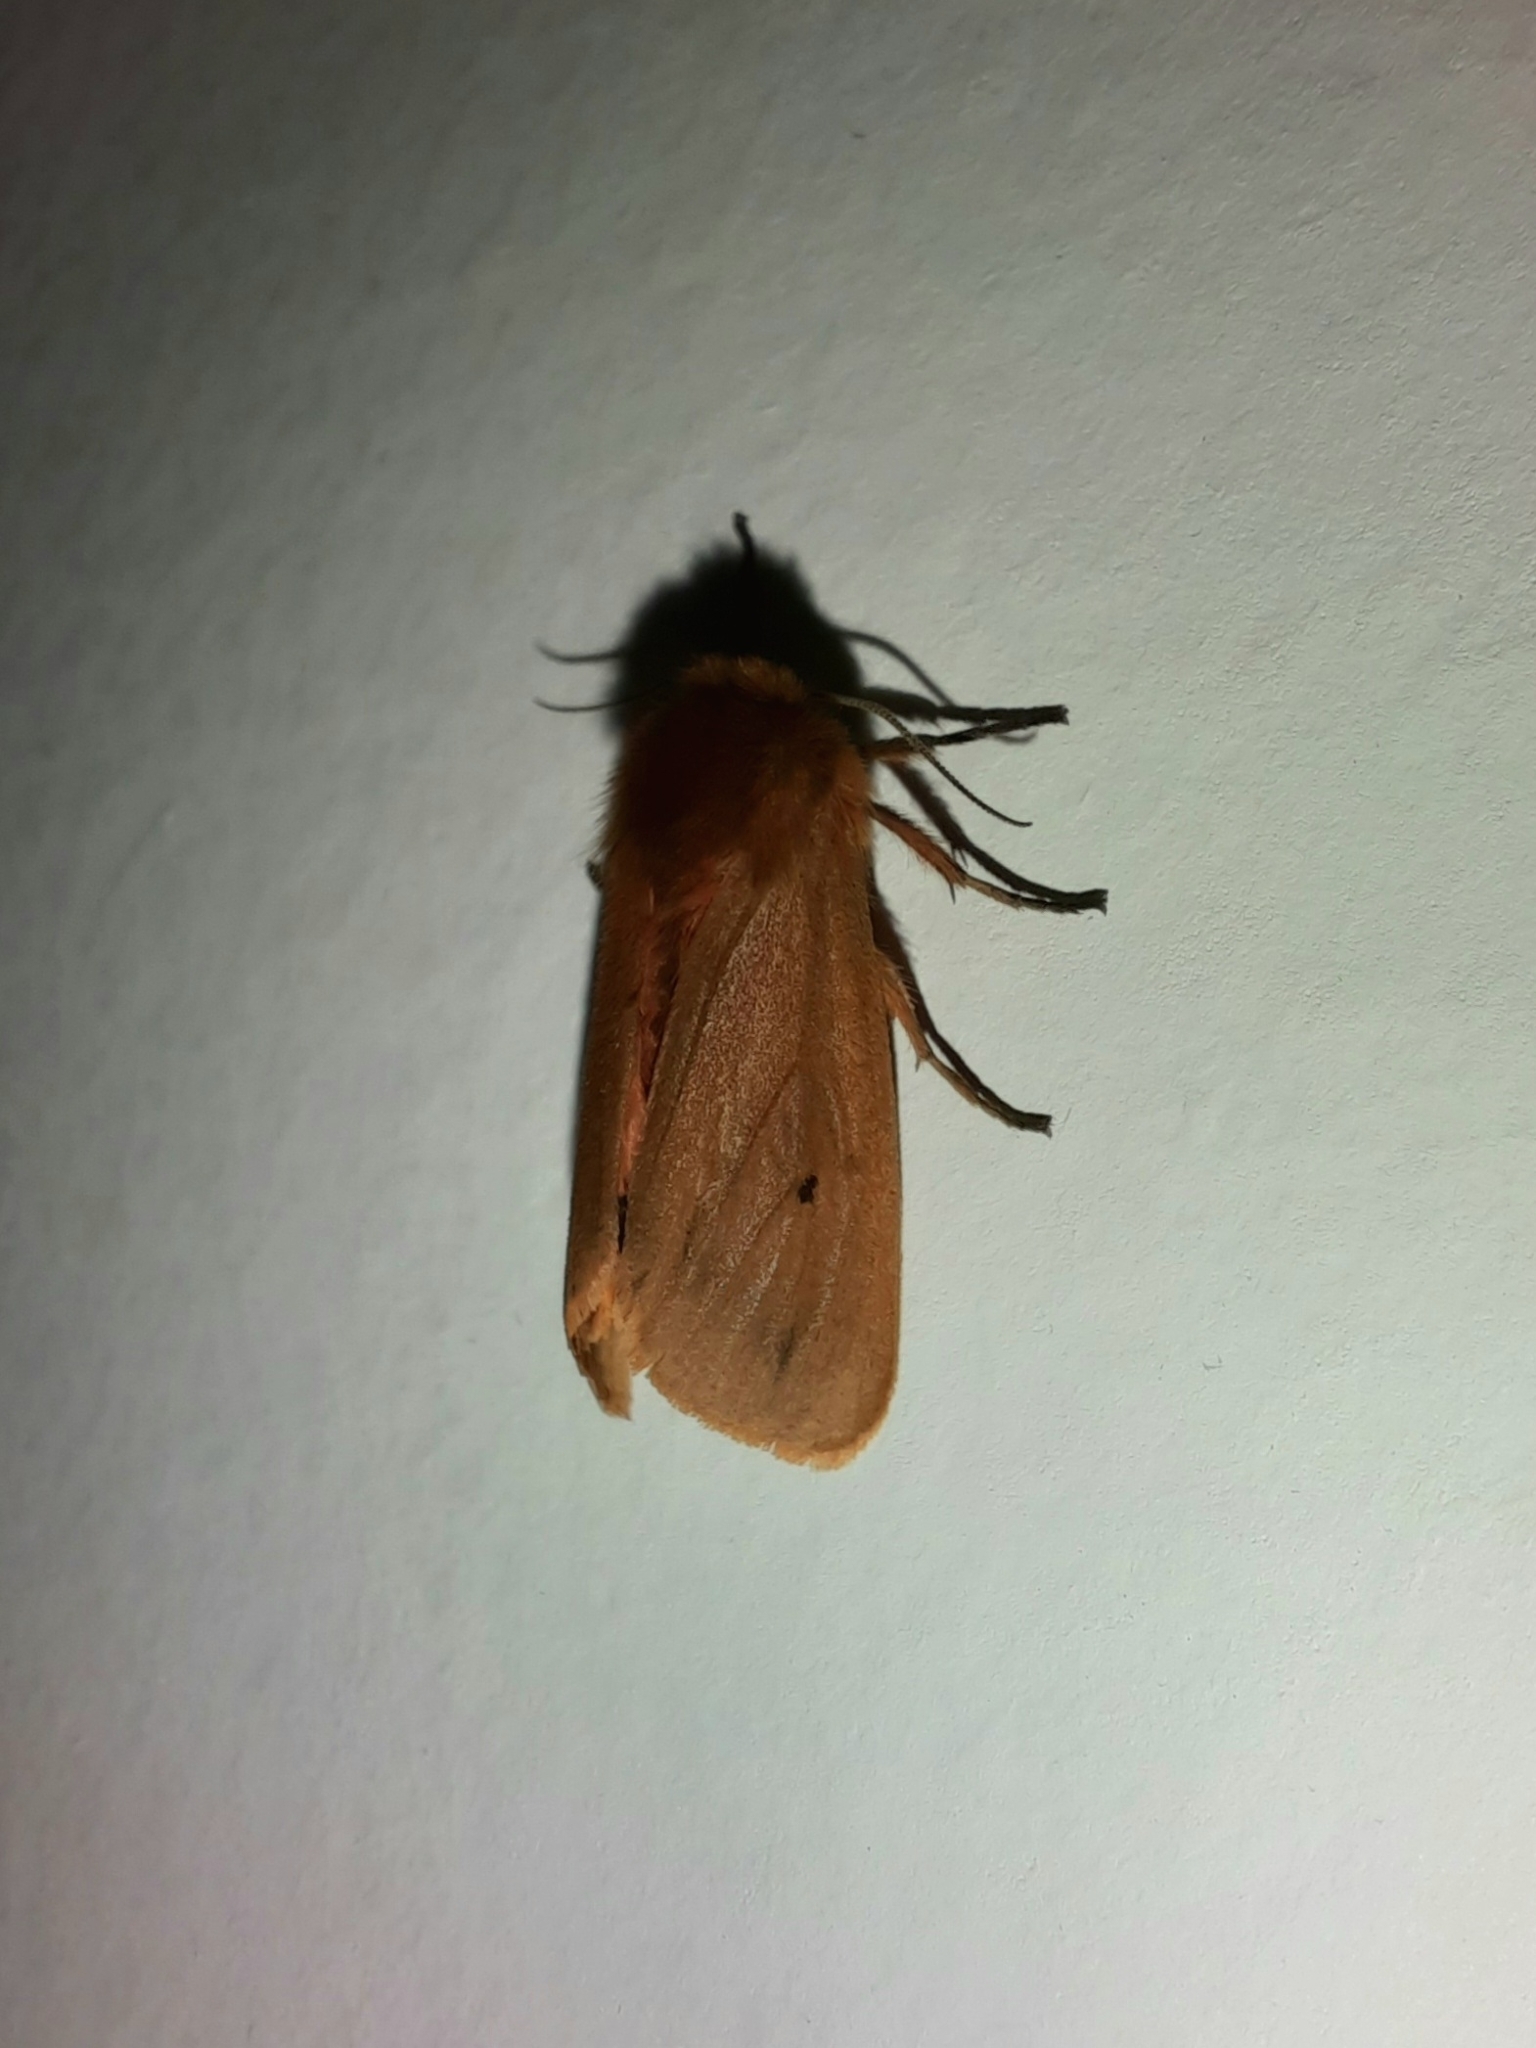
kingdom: Animalia
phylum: Arthropoda
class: Insecta
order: Lepidoptera
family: Erebidae
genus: Phragmatobia
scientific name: Phragmatobia fuliginosa
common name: Ruby tiger
